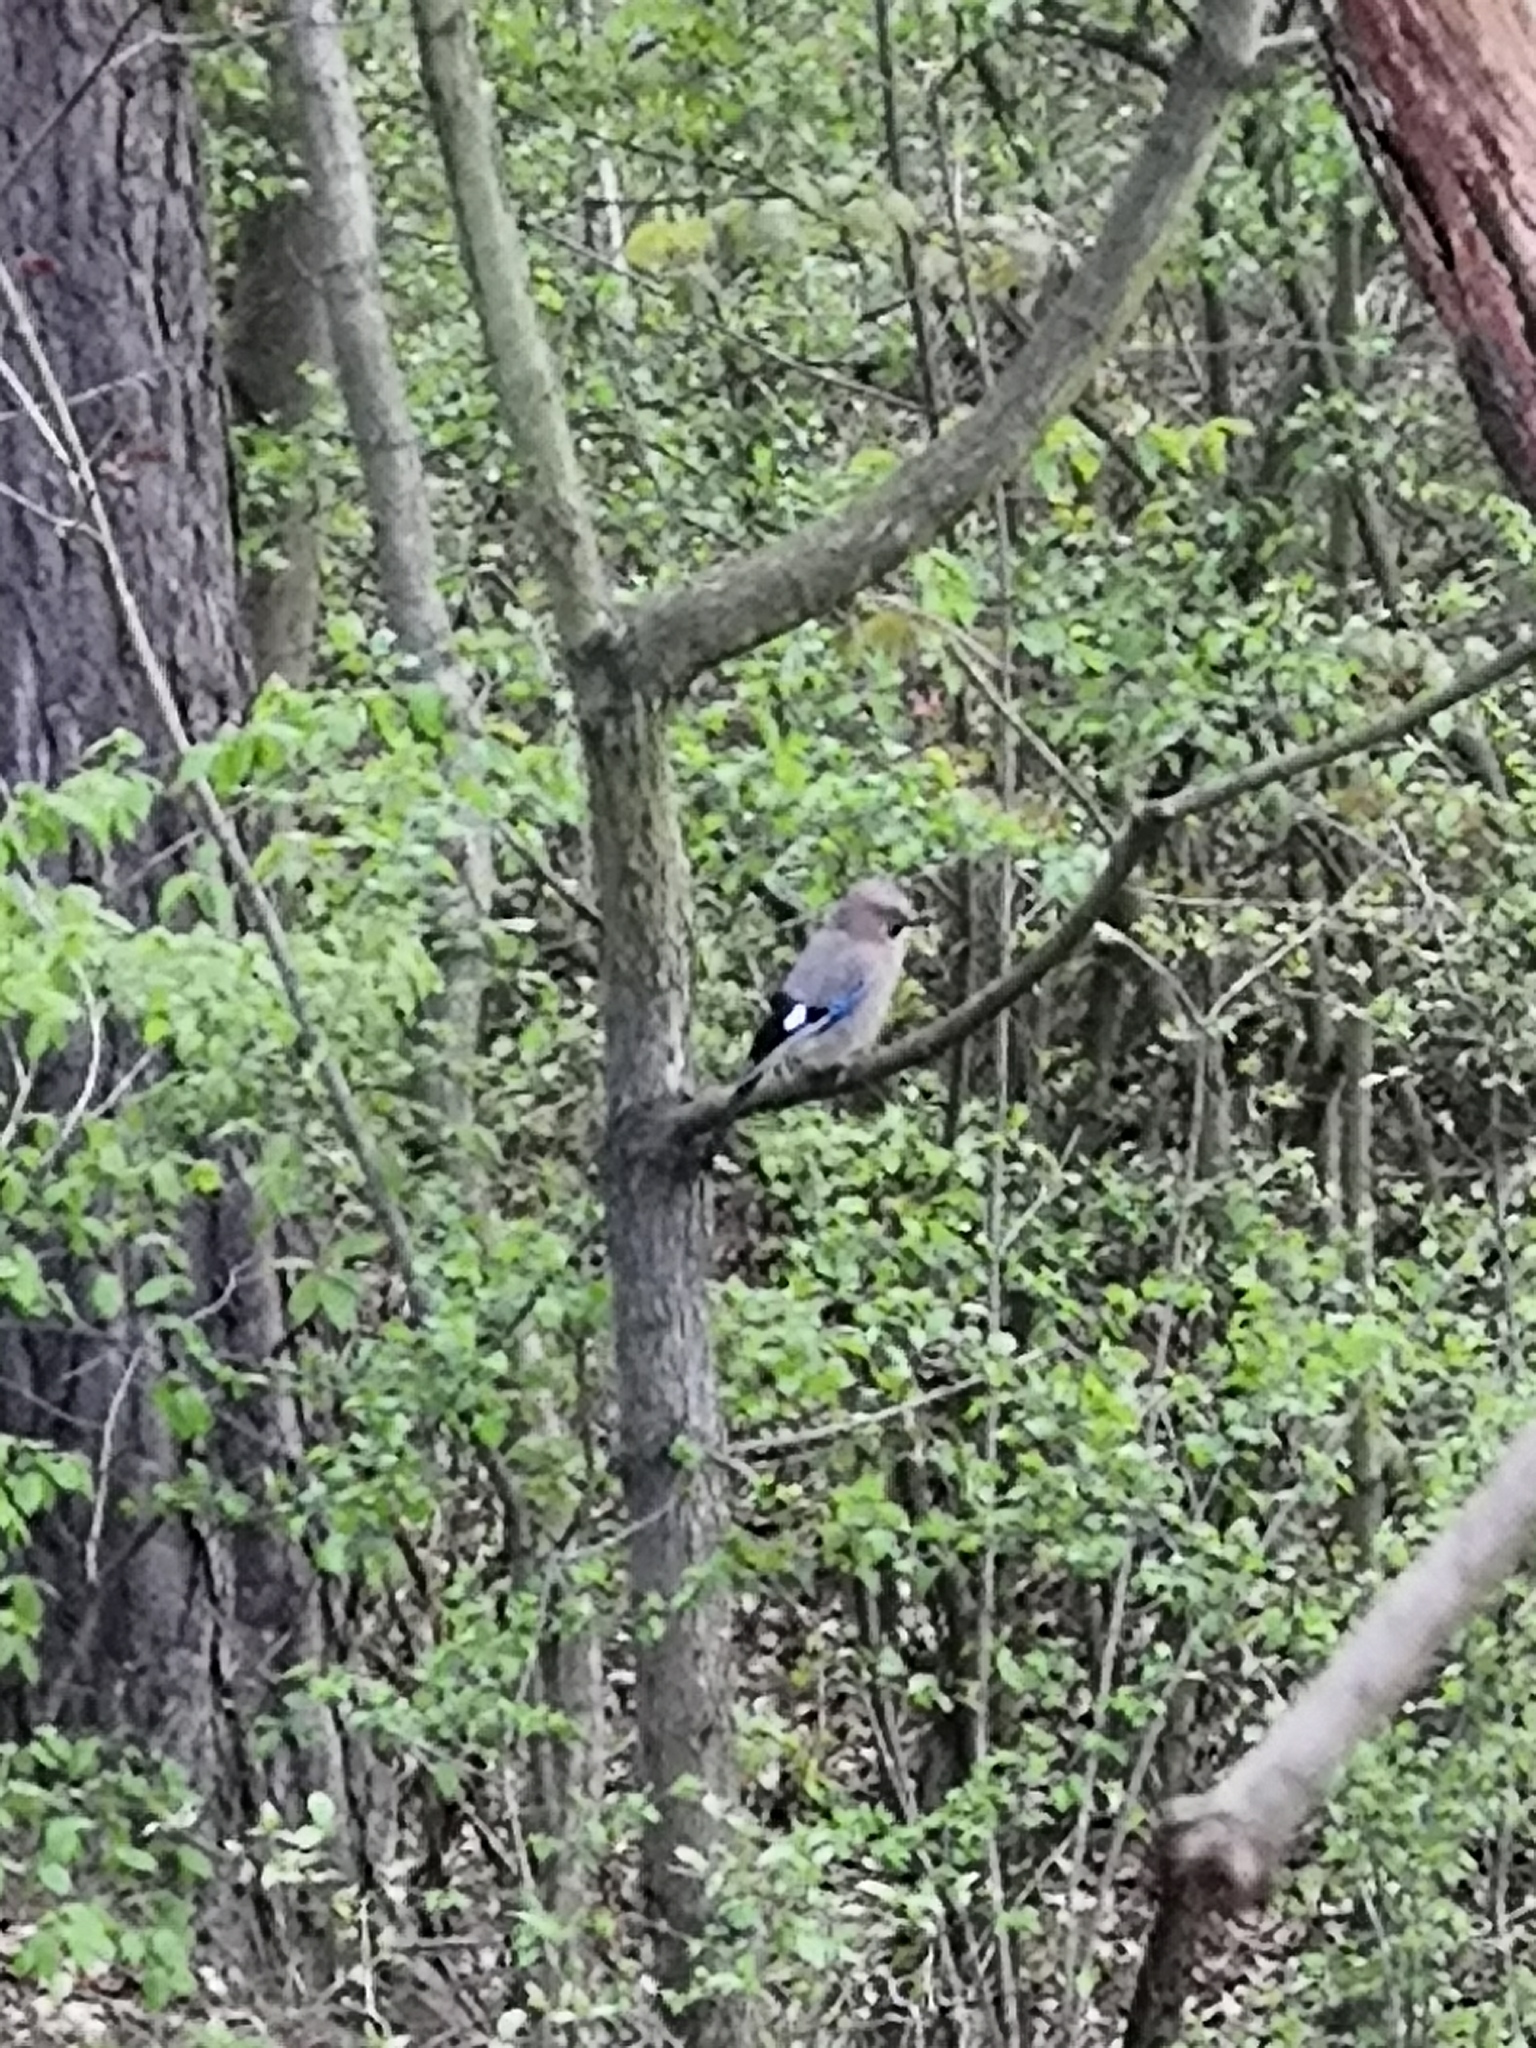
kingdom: Animalia
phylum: Chordata
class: Aves
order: Passeriformes
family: Corvidae
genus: Garrulus
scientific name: Garrulus glandarius
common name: Eurasian jay
